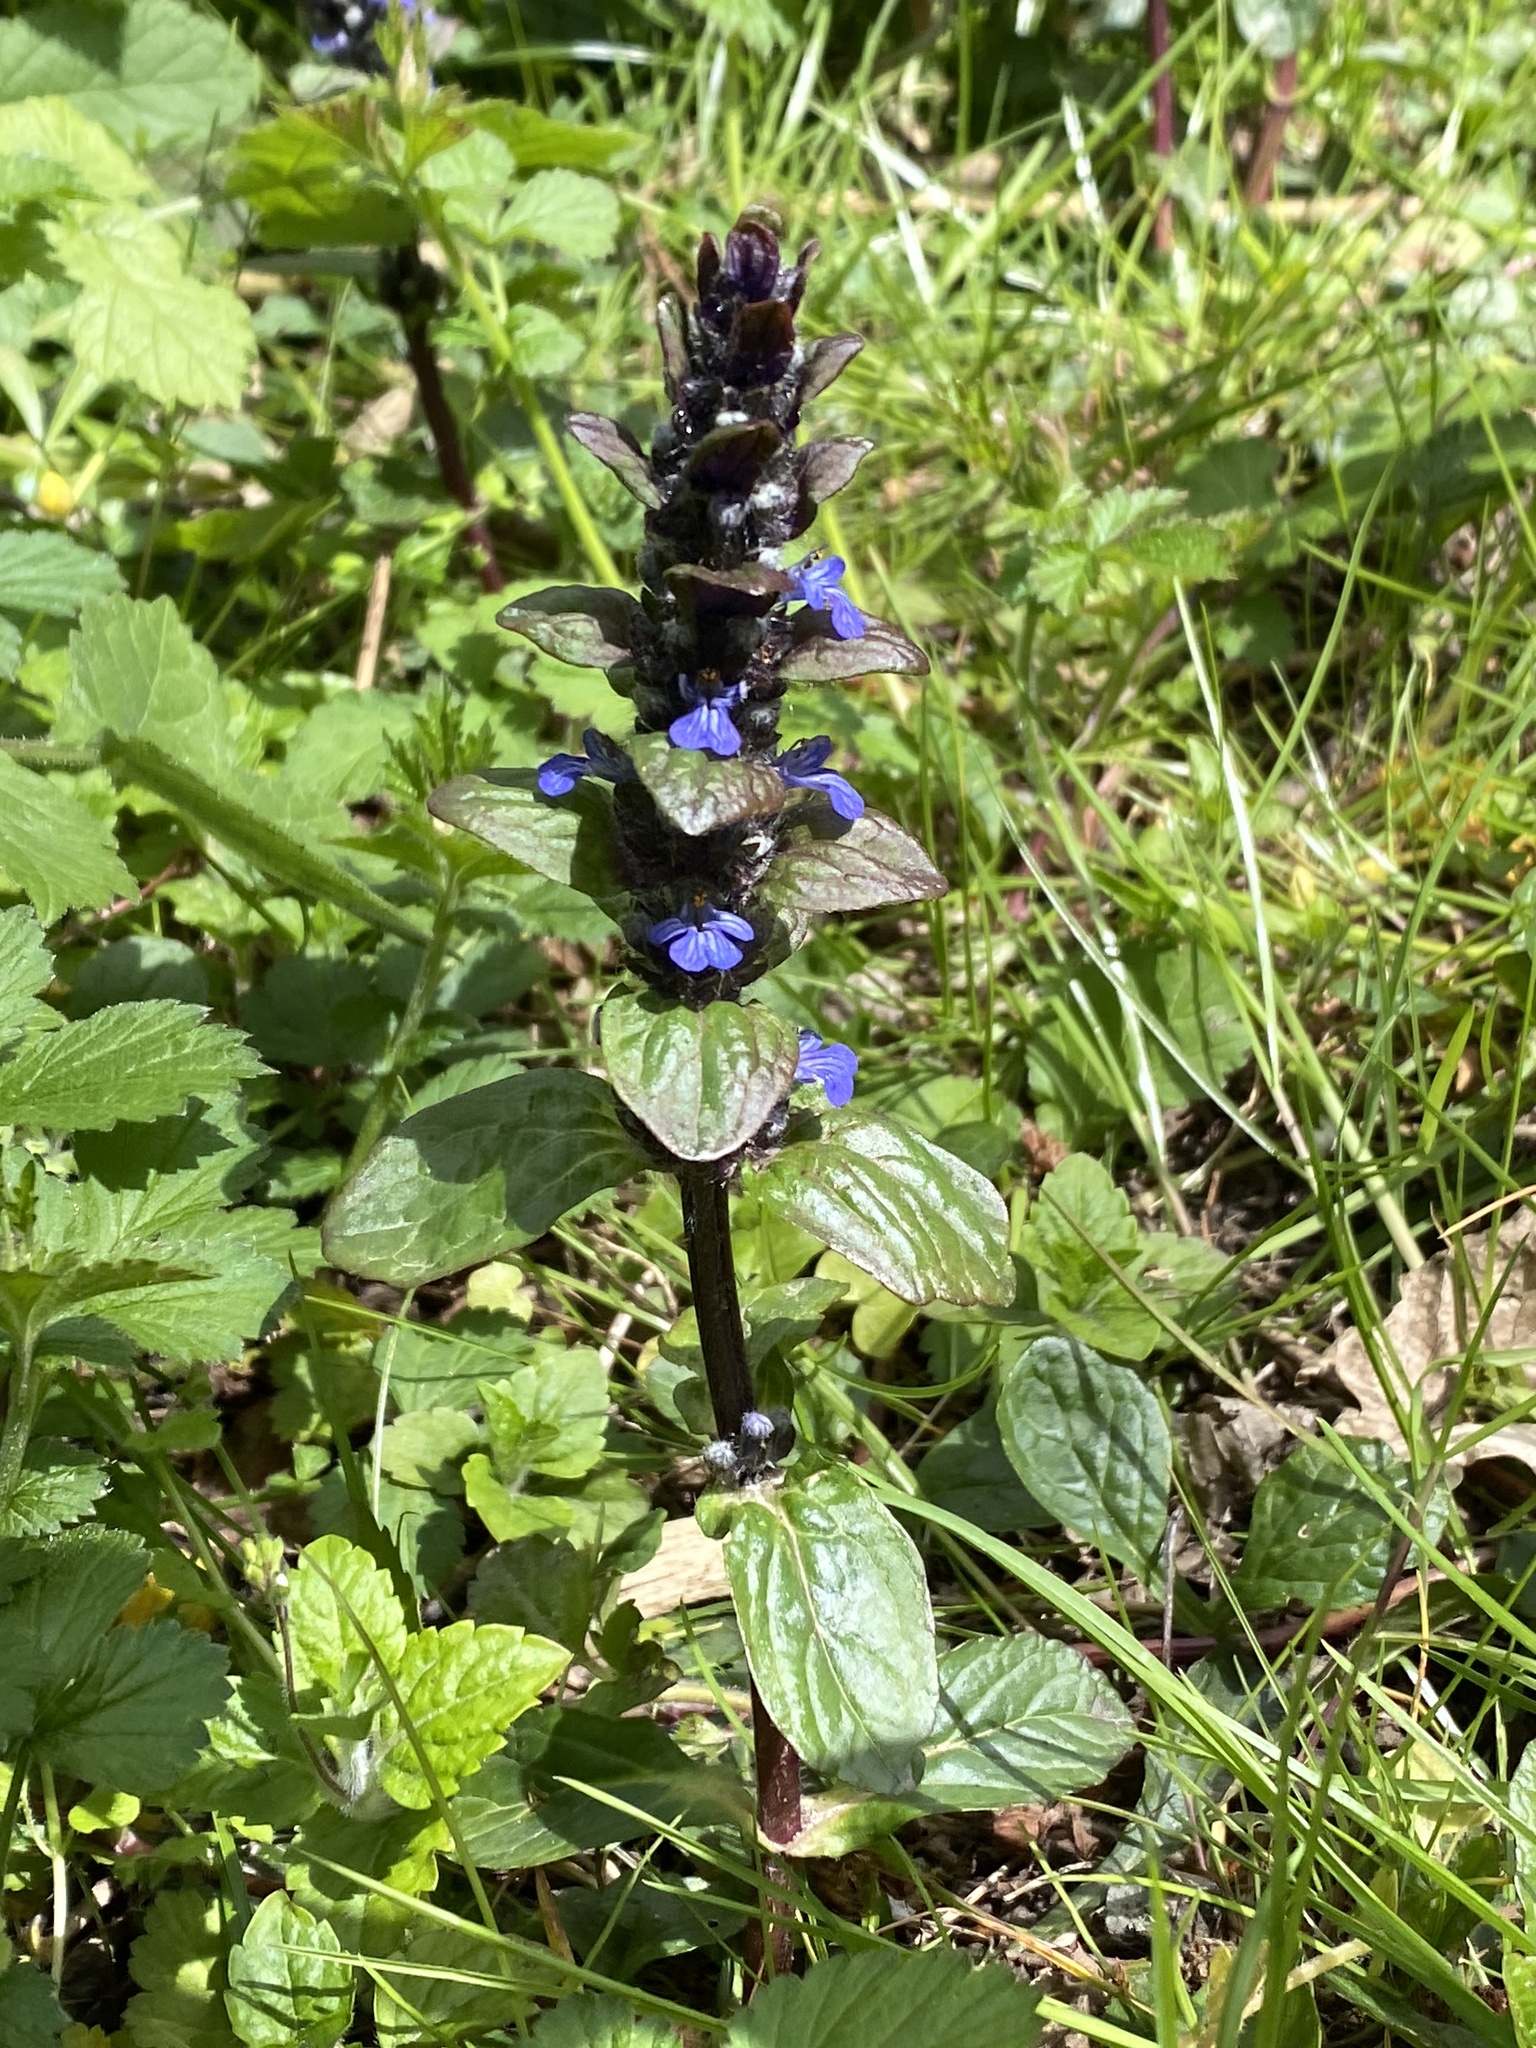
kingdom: Plantae
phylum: Tracheophyta
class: Magnoliopsida
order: Lamiales
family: Lamiaceae
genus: Ajuga
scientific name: Ajuga reptans
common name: Bugle
